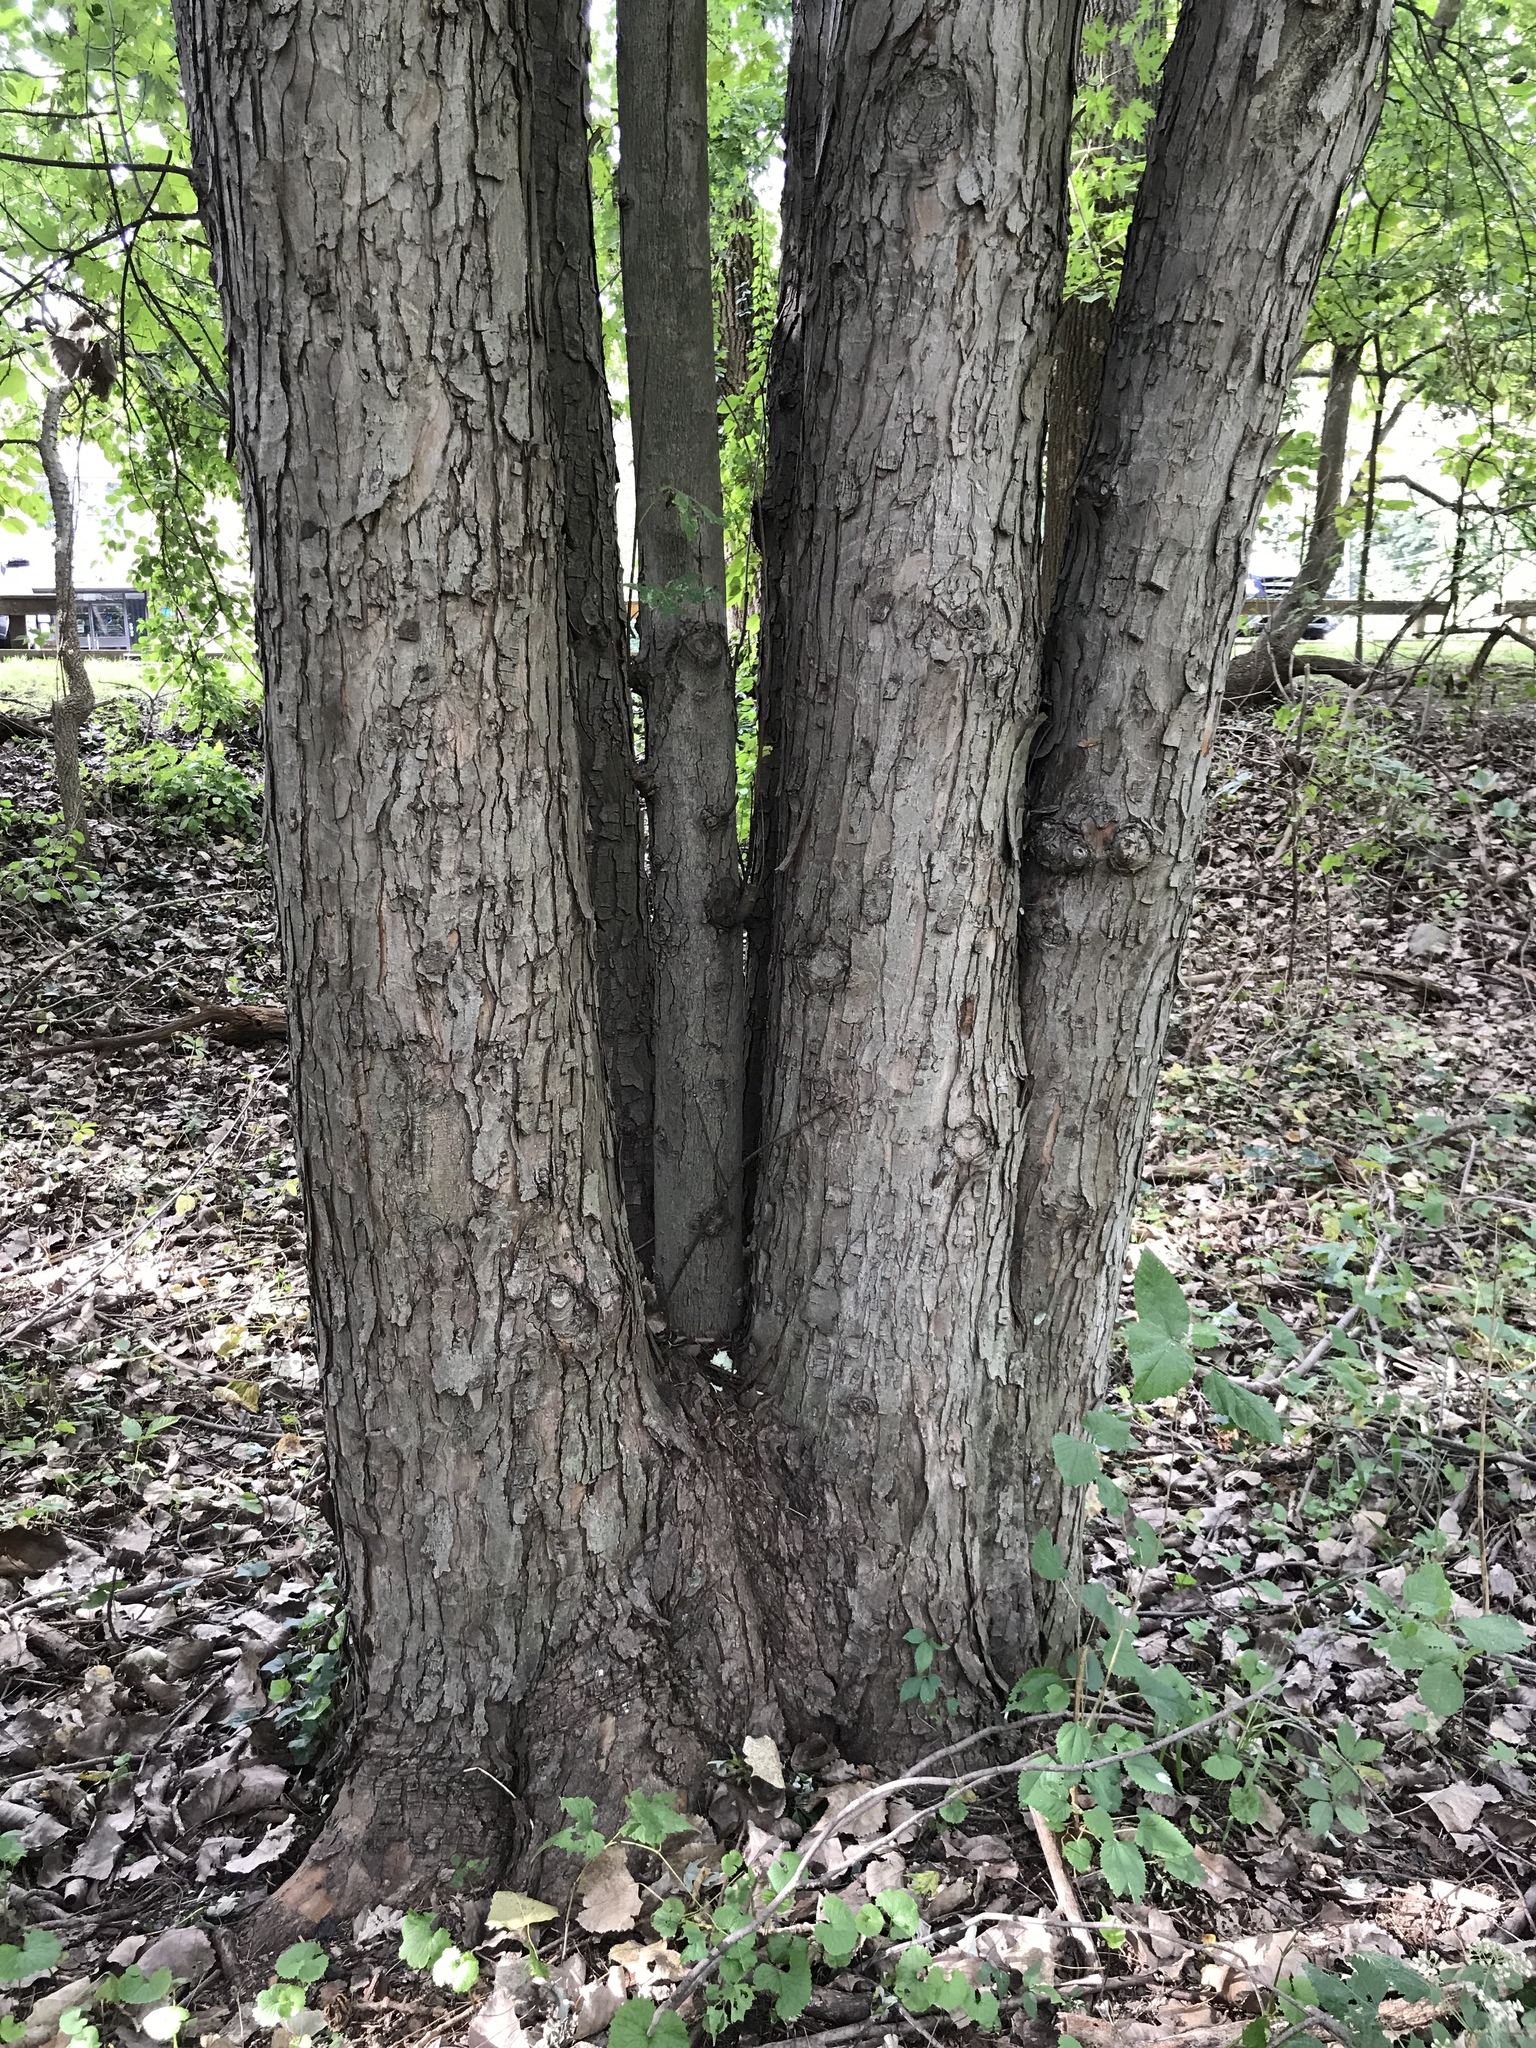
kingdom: Plantae
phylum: Tracheophyta
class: Magnoliopsida
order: Sapindales
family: Sapindaceae
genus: Acer
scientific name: Acer saccharinum
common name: Silver maple
